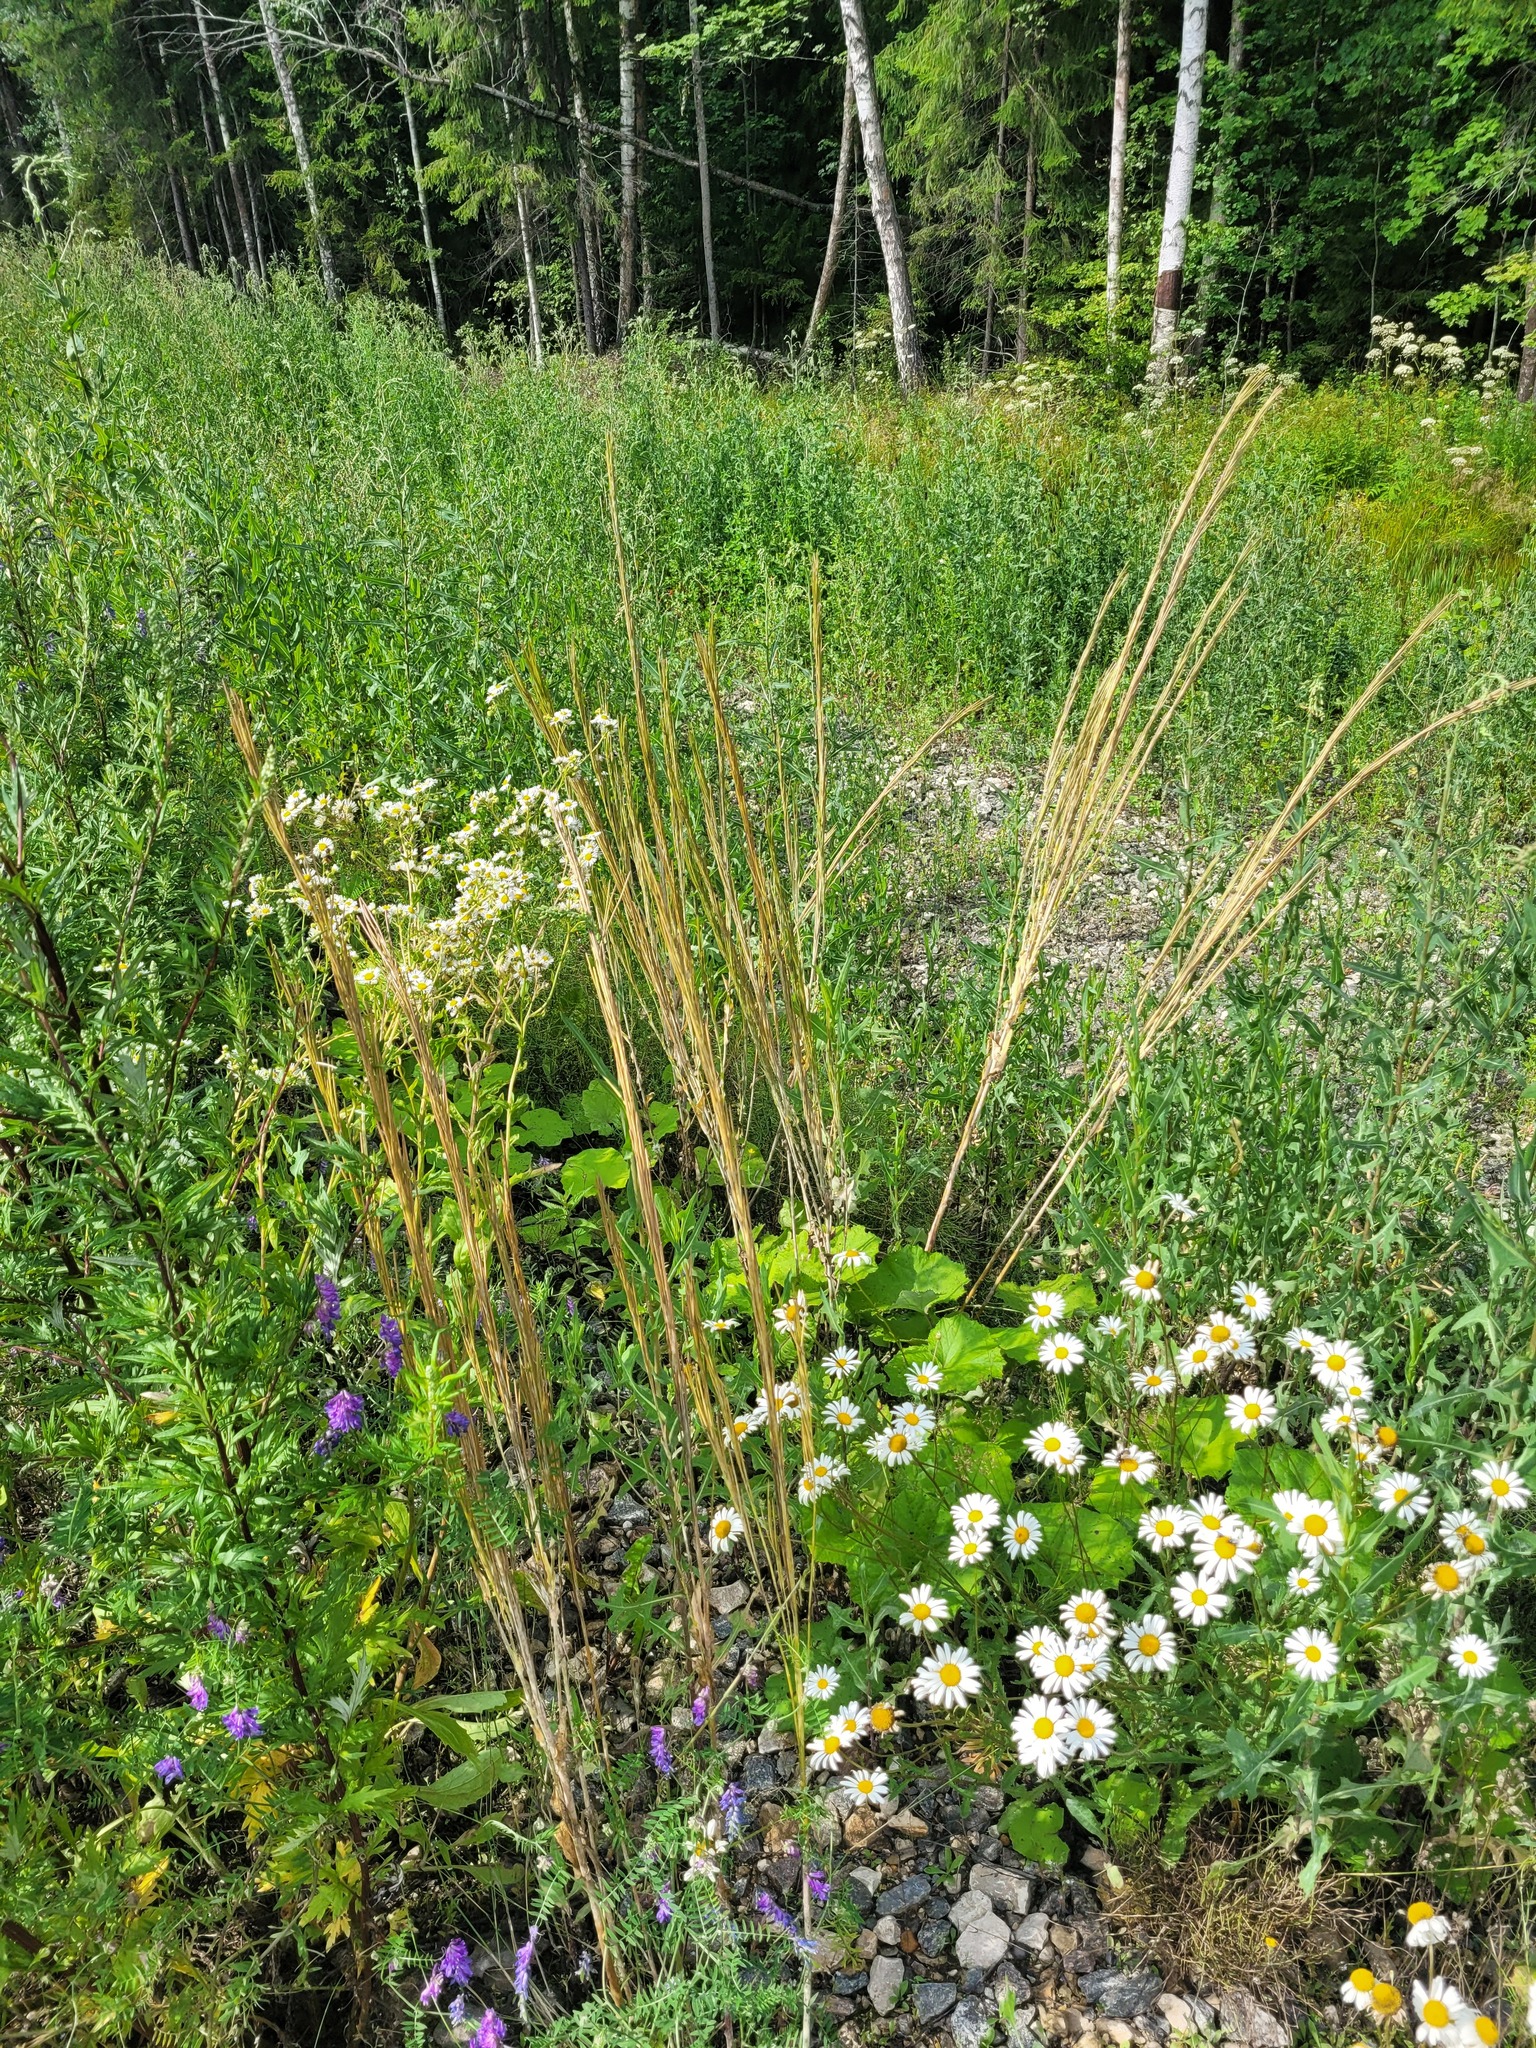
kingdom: Plantae
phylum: Tracheophyta
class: Magnoliopsida
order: Brassicales
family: Brassicaceae
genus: Turritis
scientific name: Turritis glabra
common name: Tower rockcress
